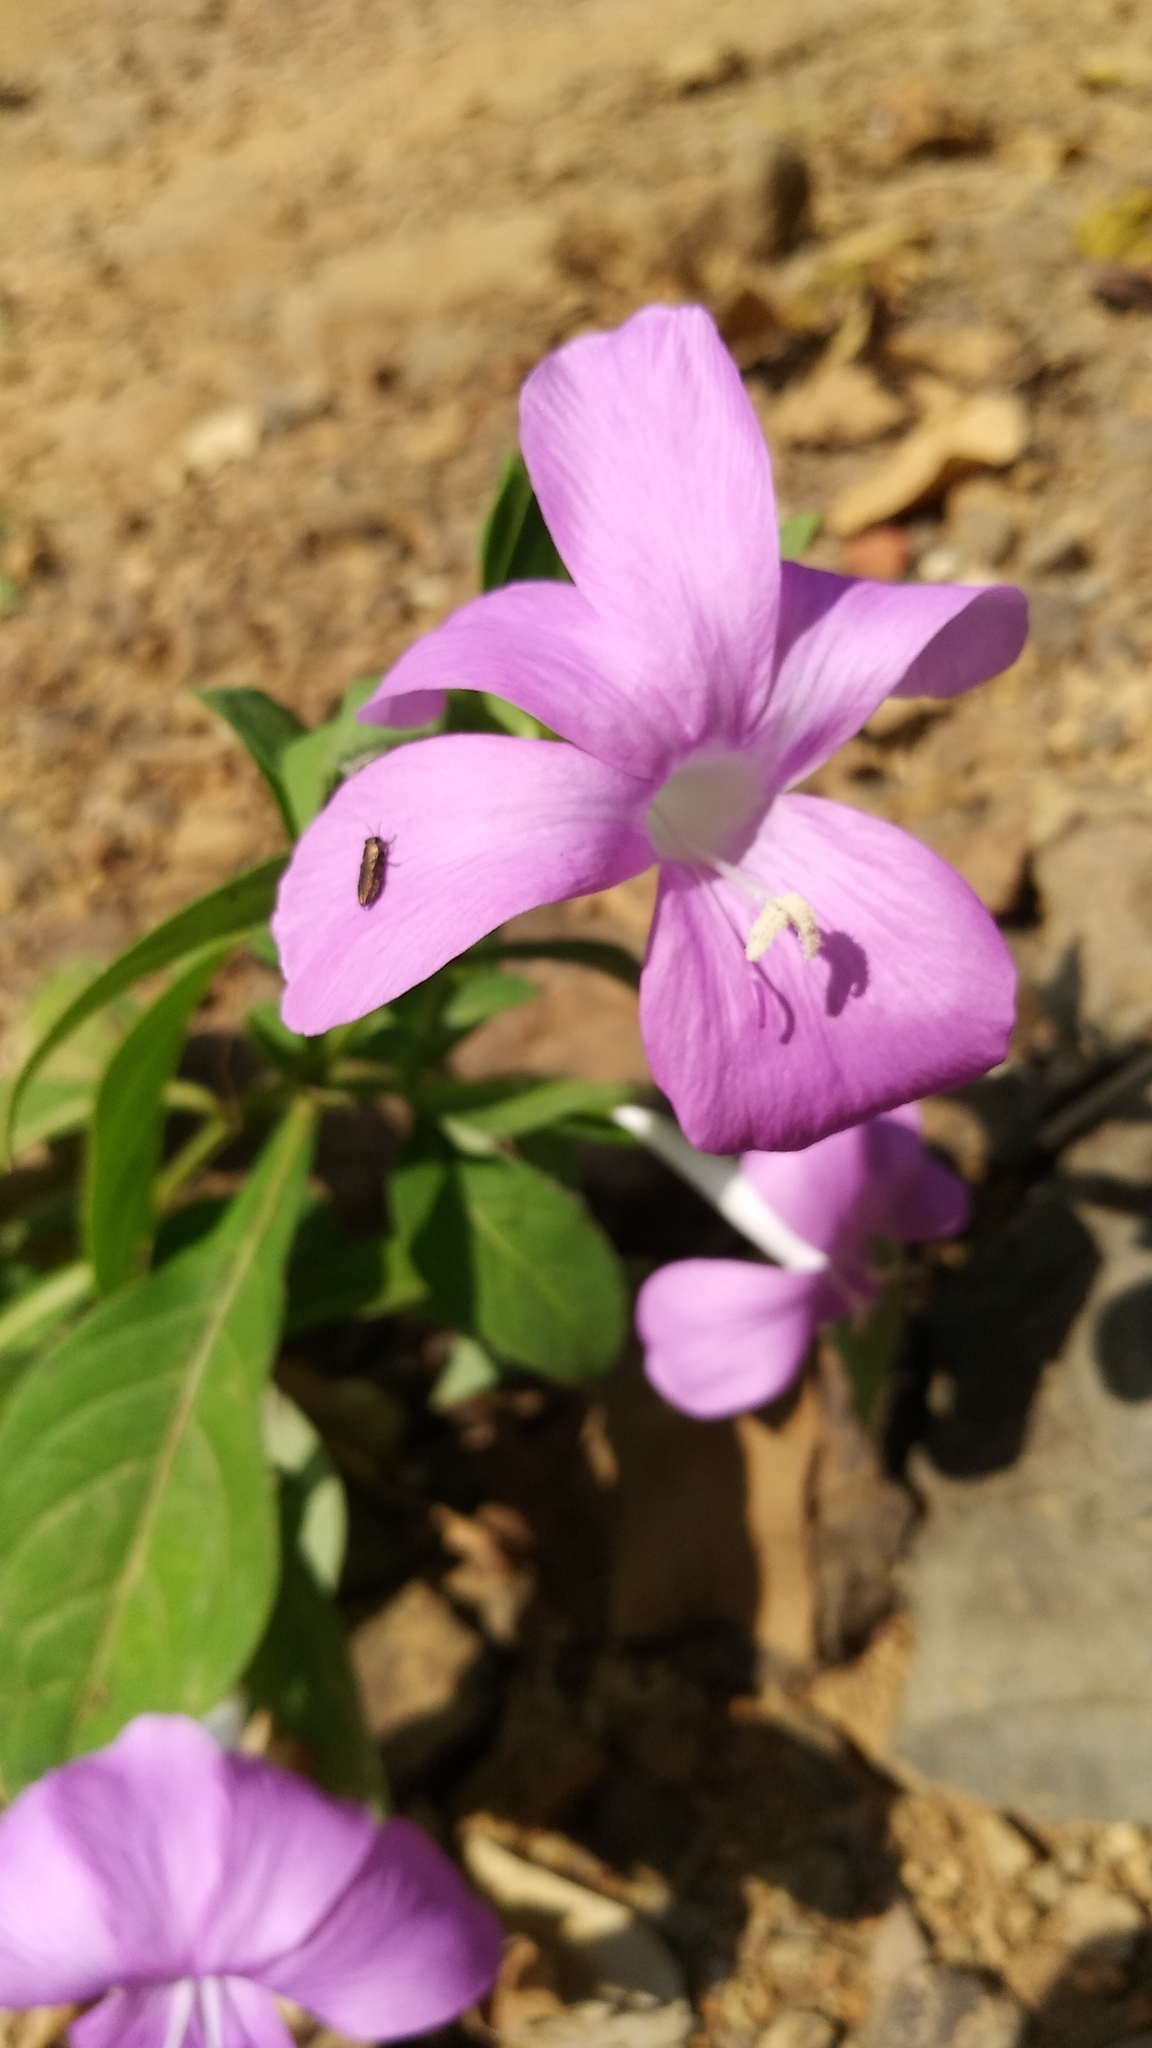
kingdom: Plantae
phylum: Tracheophyta
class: Magnoliopsida
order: Lamiales
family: Acanthaceae
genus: Barleria
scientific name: Barleria cristata
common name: Crested philippine violet
